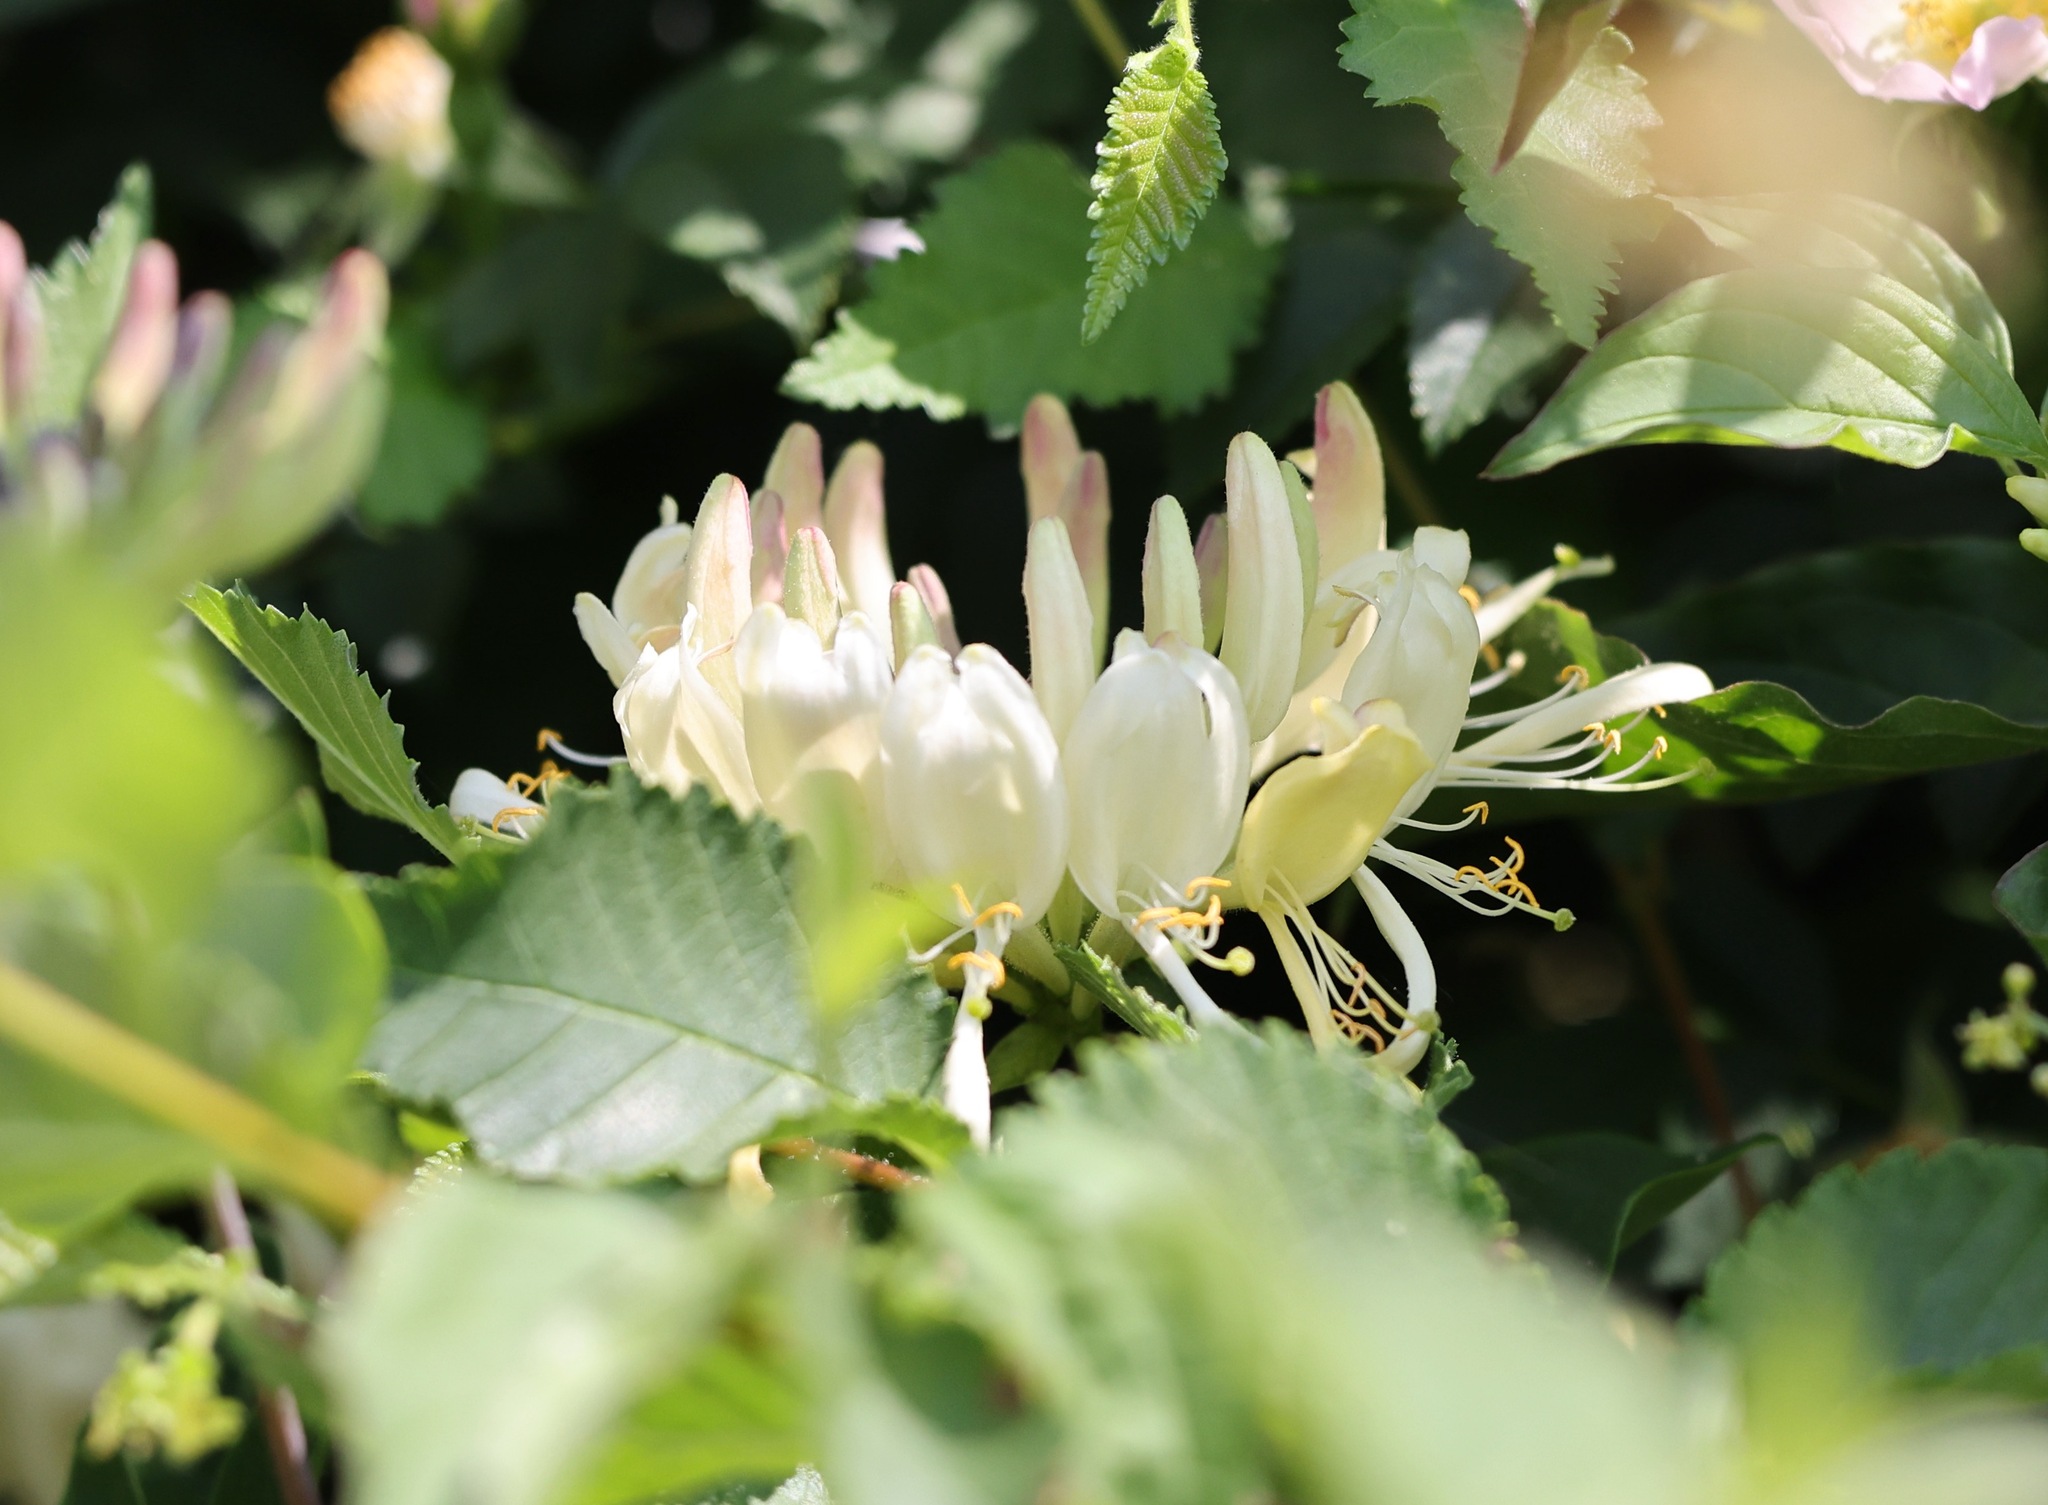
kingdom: Plantae
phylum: Tracheophyta
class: Magnoliopsida
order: Dipsacales
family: Caprifoliaceae
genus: Lonicera
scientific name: Lonicera periclymenum
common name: European honeysuckle
